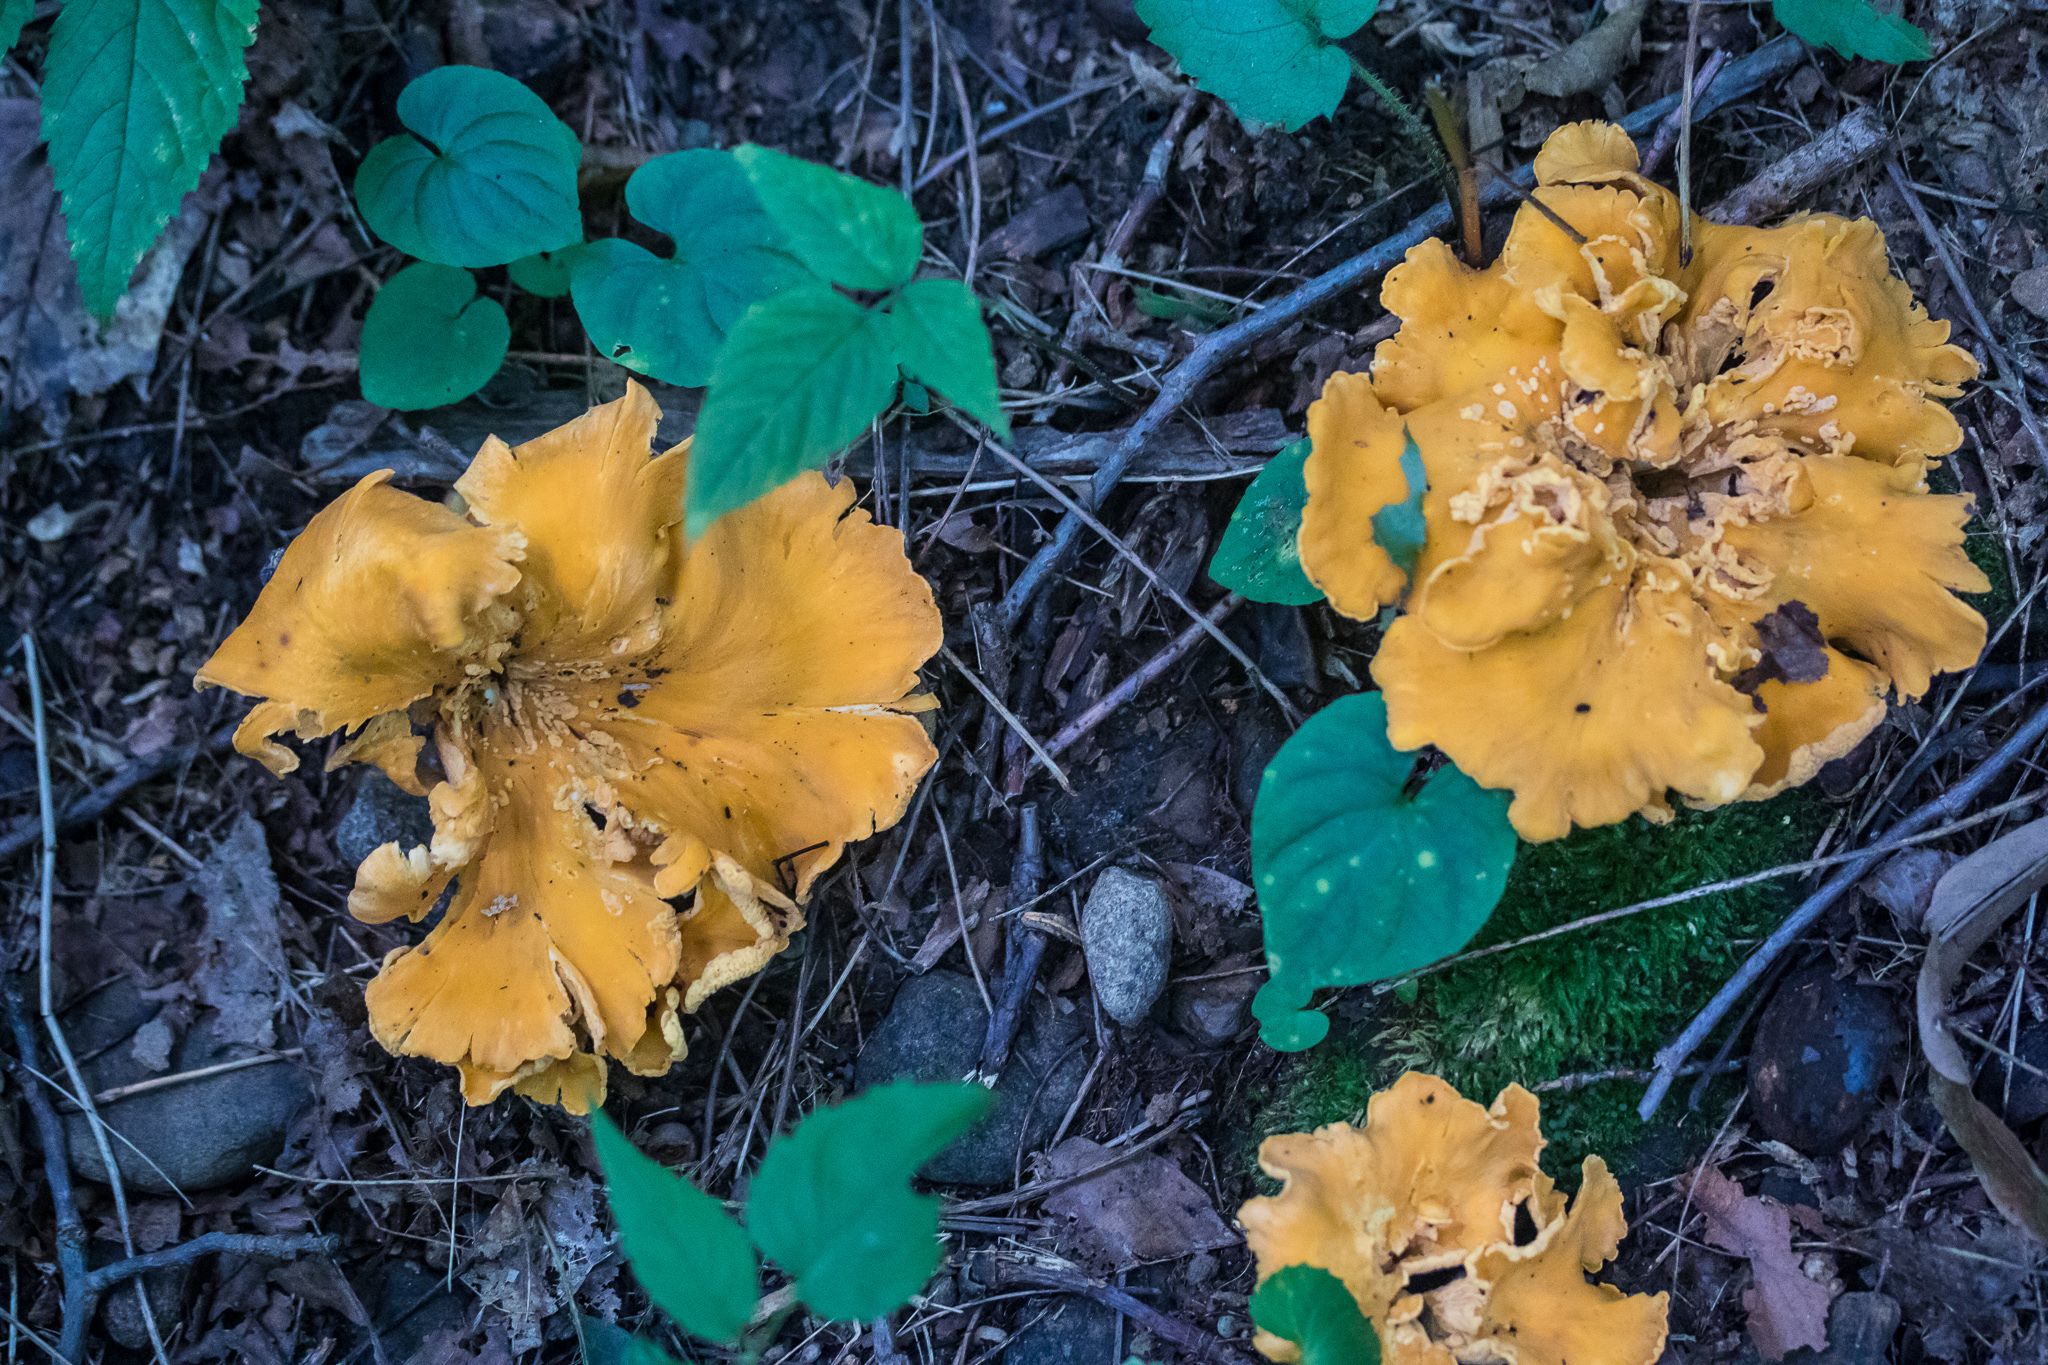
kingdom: Fungi
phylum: Basidiomycota
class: Agaricomycetes
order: Cantharellales
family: Hydnaceae
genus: Cantharellus
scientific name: Cantharellus lateritius
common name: Smooth chanterelle
